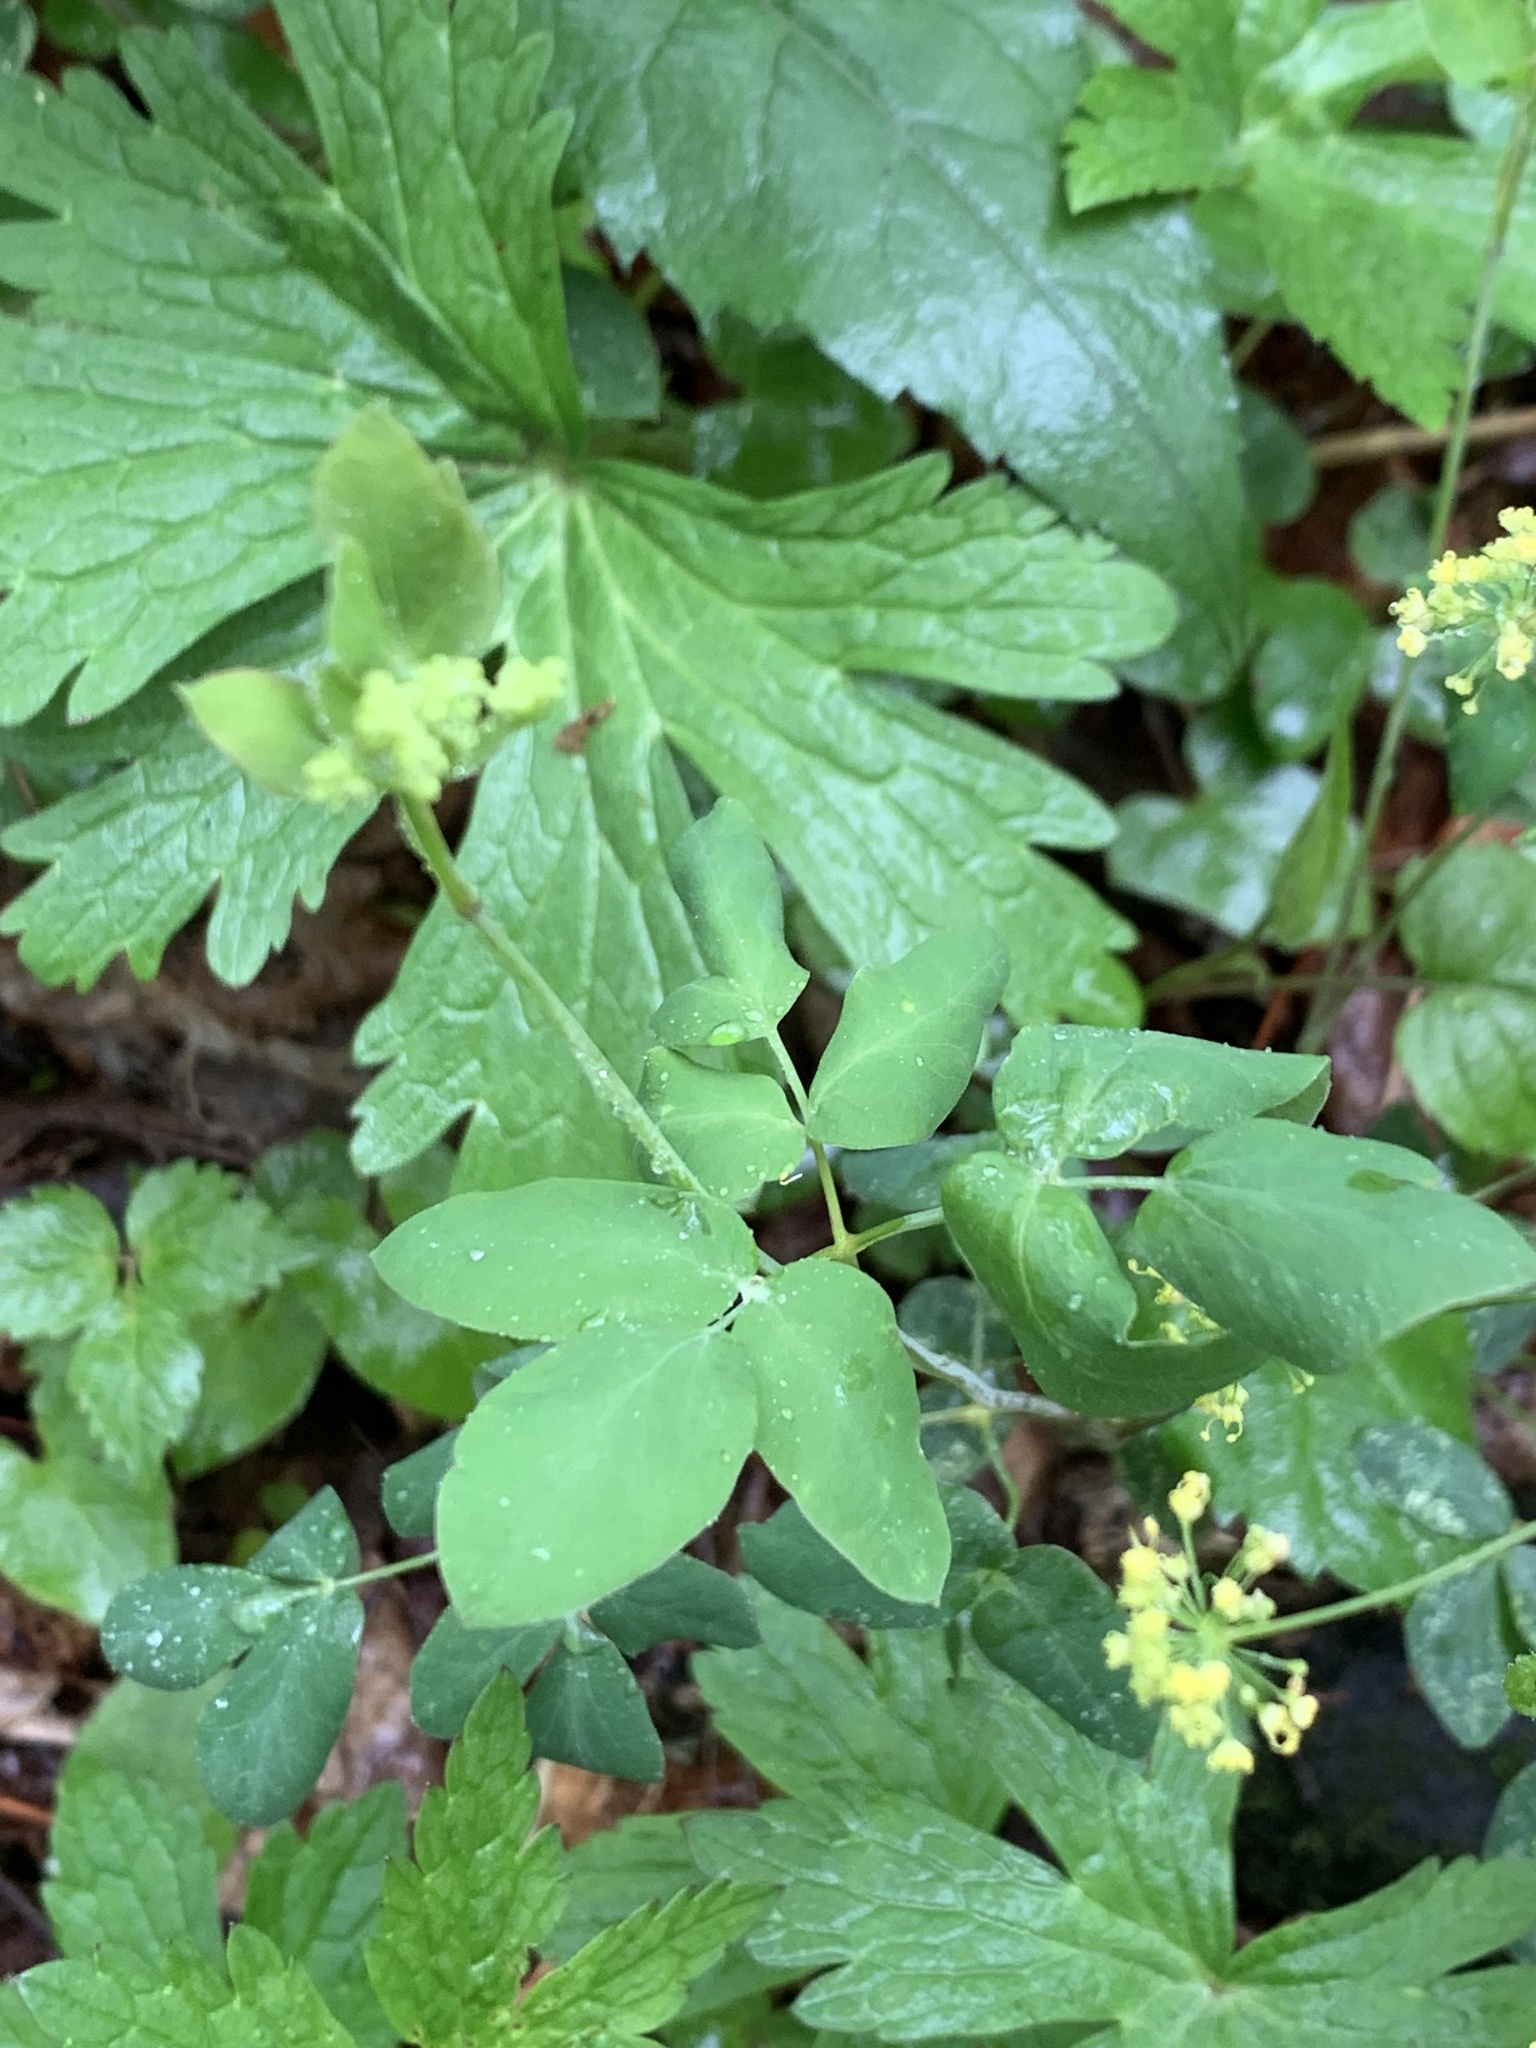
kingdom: Plantae
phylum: Tracheophyta
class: Magnoliopsida
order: Apiales
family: Apiaceae
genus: Taenidia
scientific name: Taenidia integerrima
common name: Golden alexander
